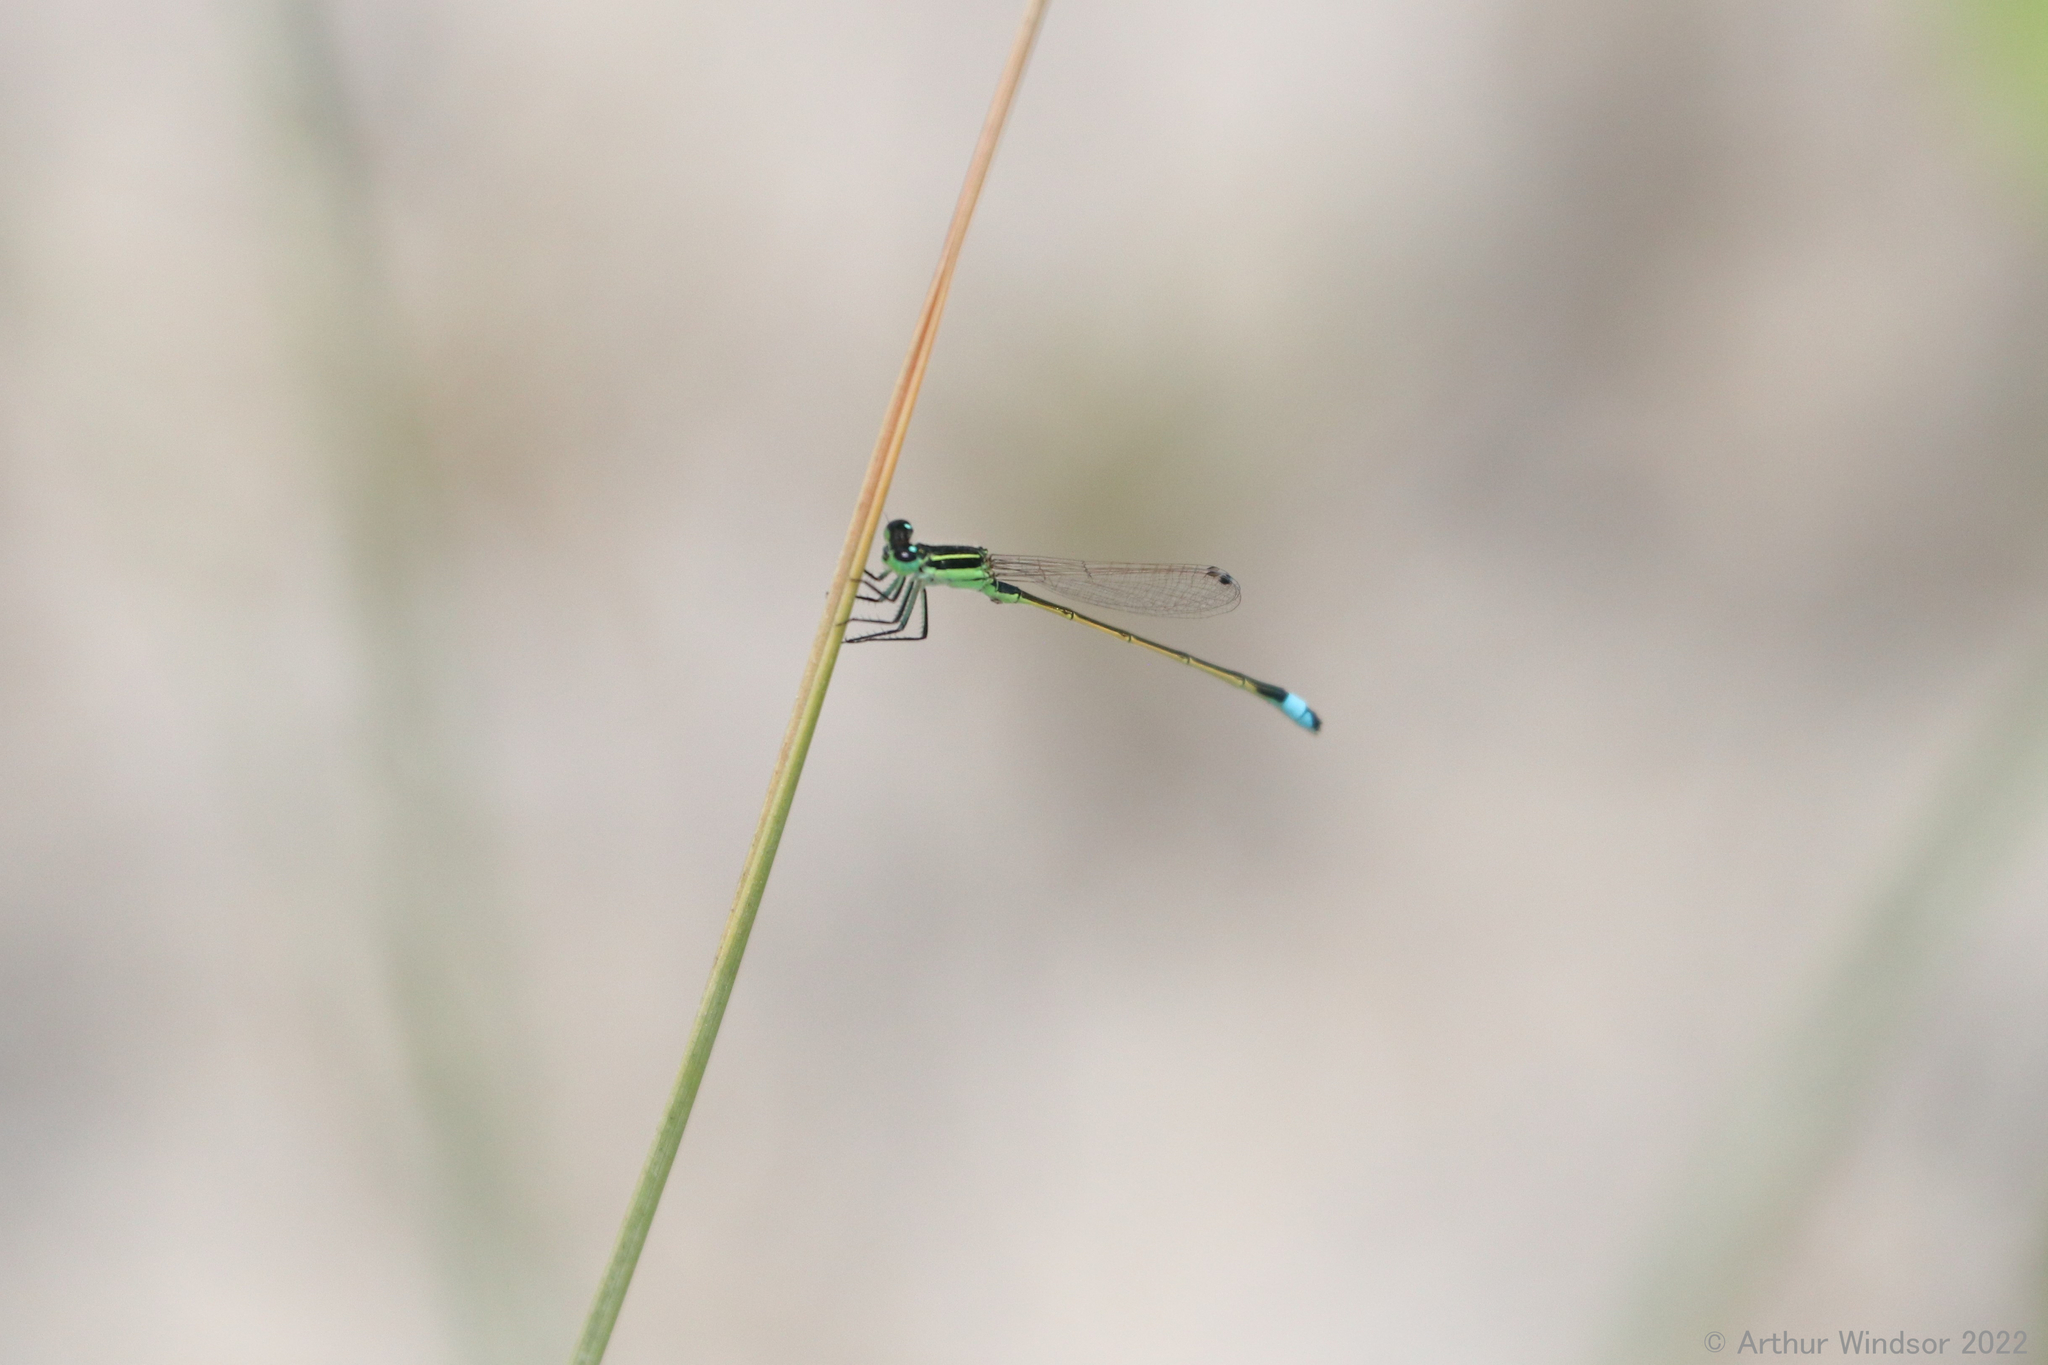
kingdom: Animalia
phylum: Arthropoda
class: Insecta
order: Odonata
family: Coenagrionidae
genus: Ischnura
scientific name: Ischnura ramburii
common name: Rambur's forktail
